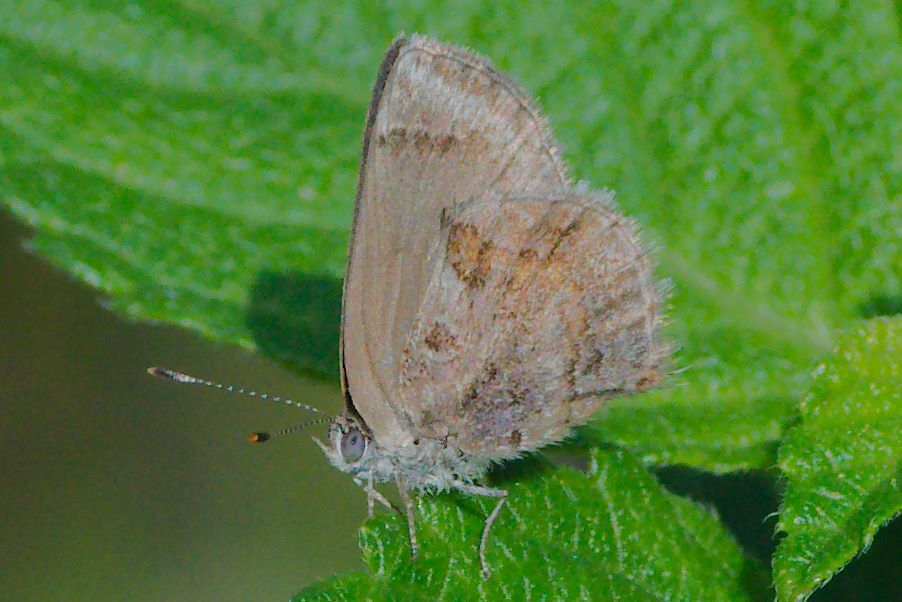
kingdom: Animalia
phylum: Arthropoda
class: Insecta
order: Lepidoptera
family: Lycaenidae
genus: Strymon
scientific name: Strymon bazochii
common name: Lantana scrub-hairstreak
